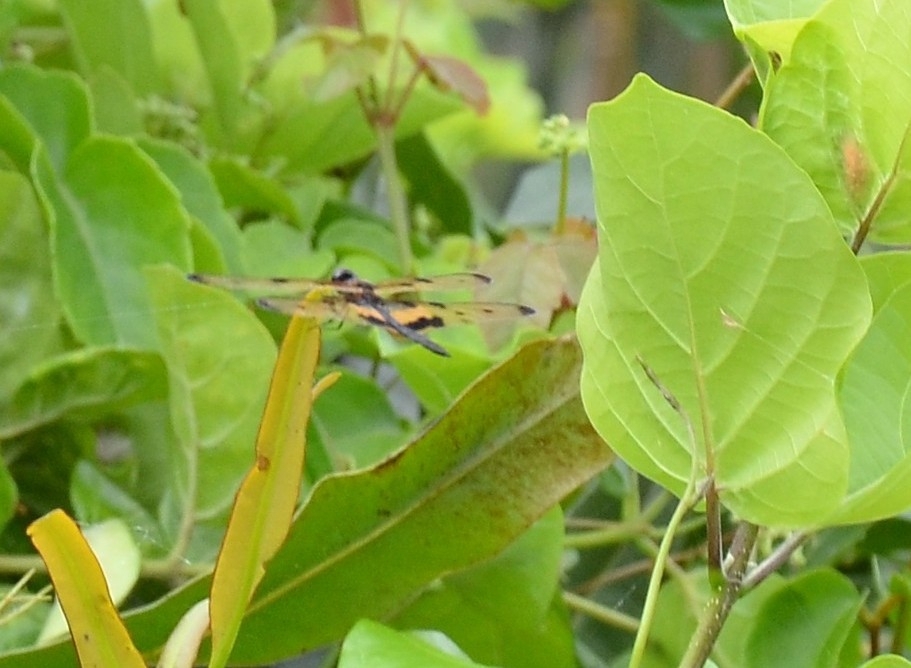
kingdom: Animalia
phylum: Arthropoda
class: Insecta
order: Odonata
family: Libellulidae
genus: Rhyothemis
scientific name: Rhyothemis variegata
